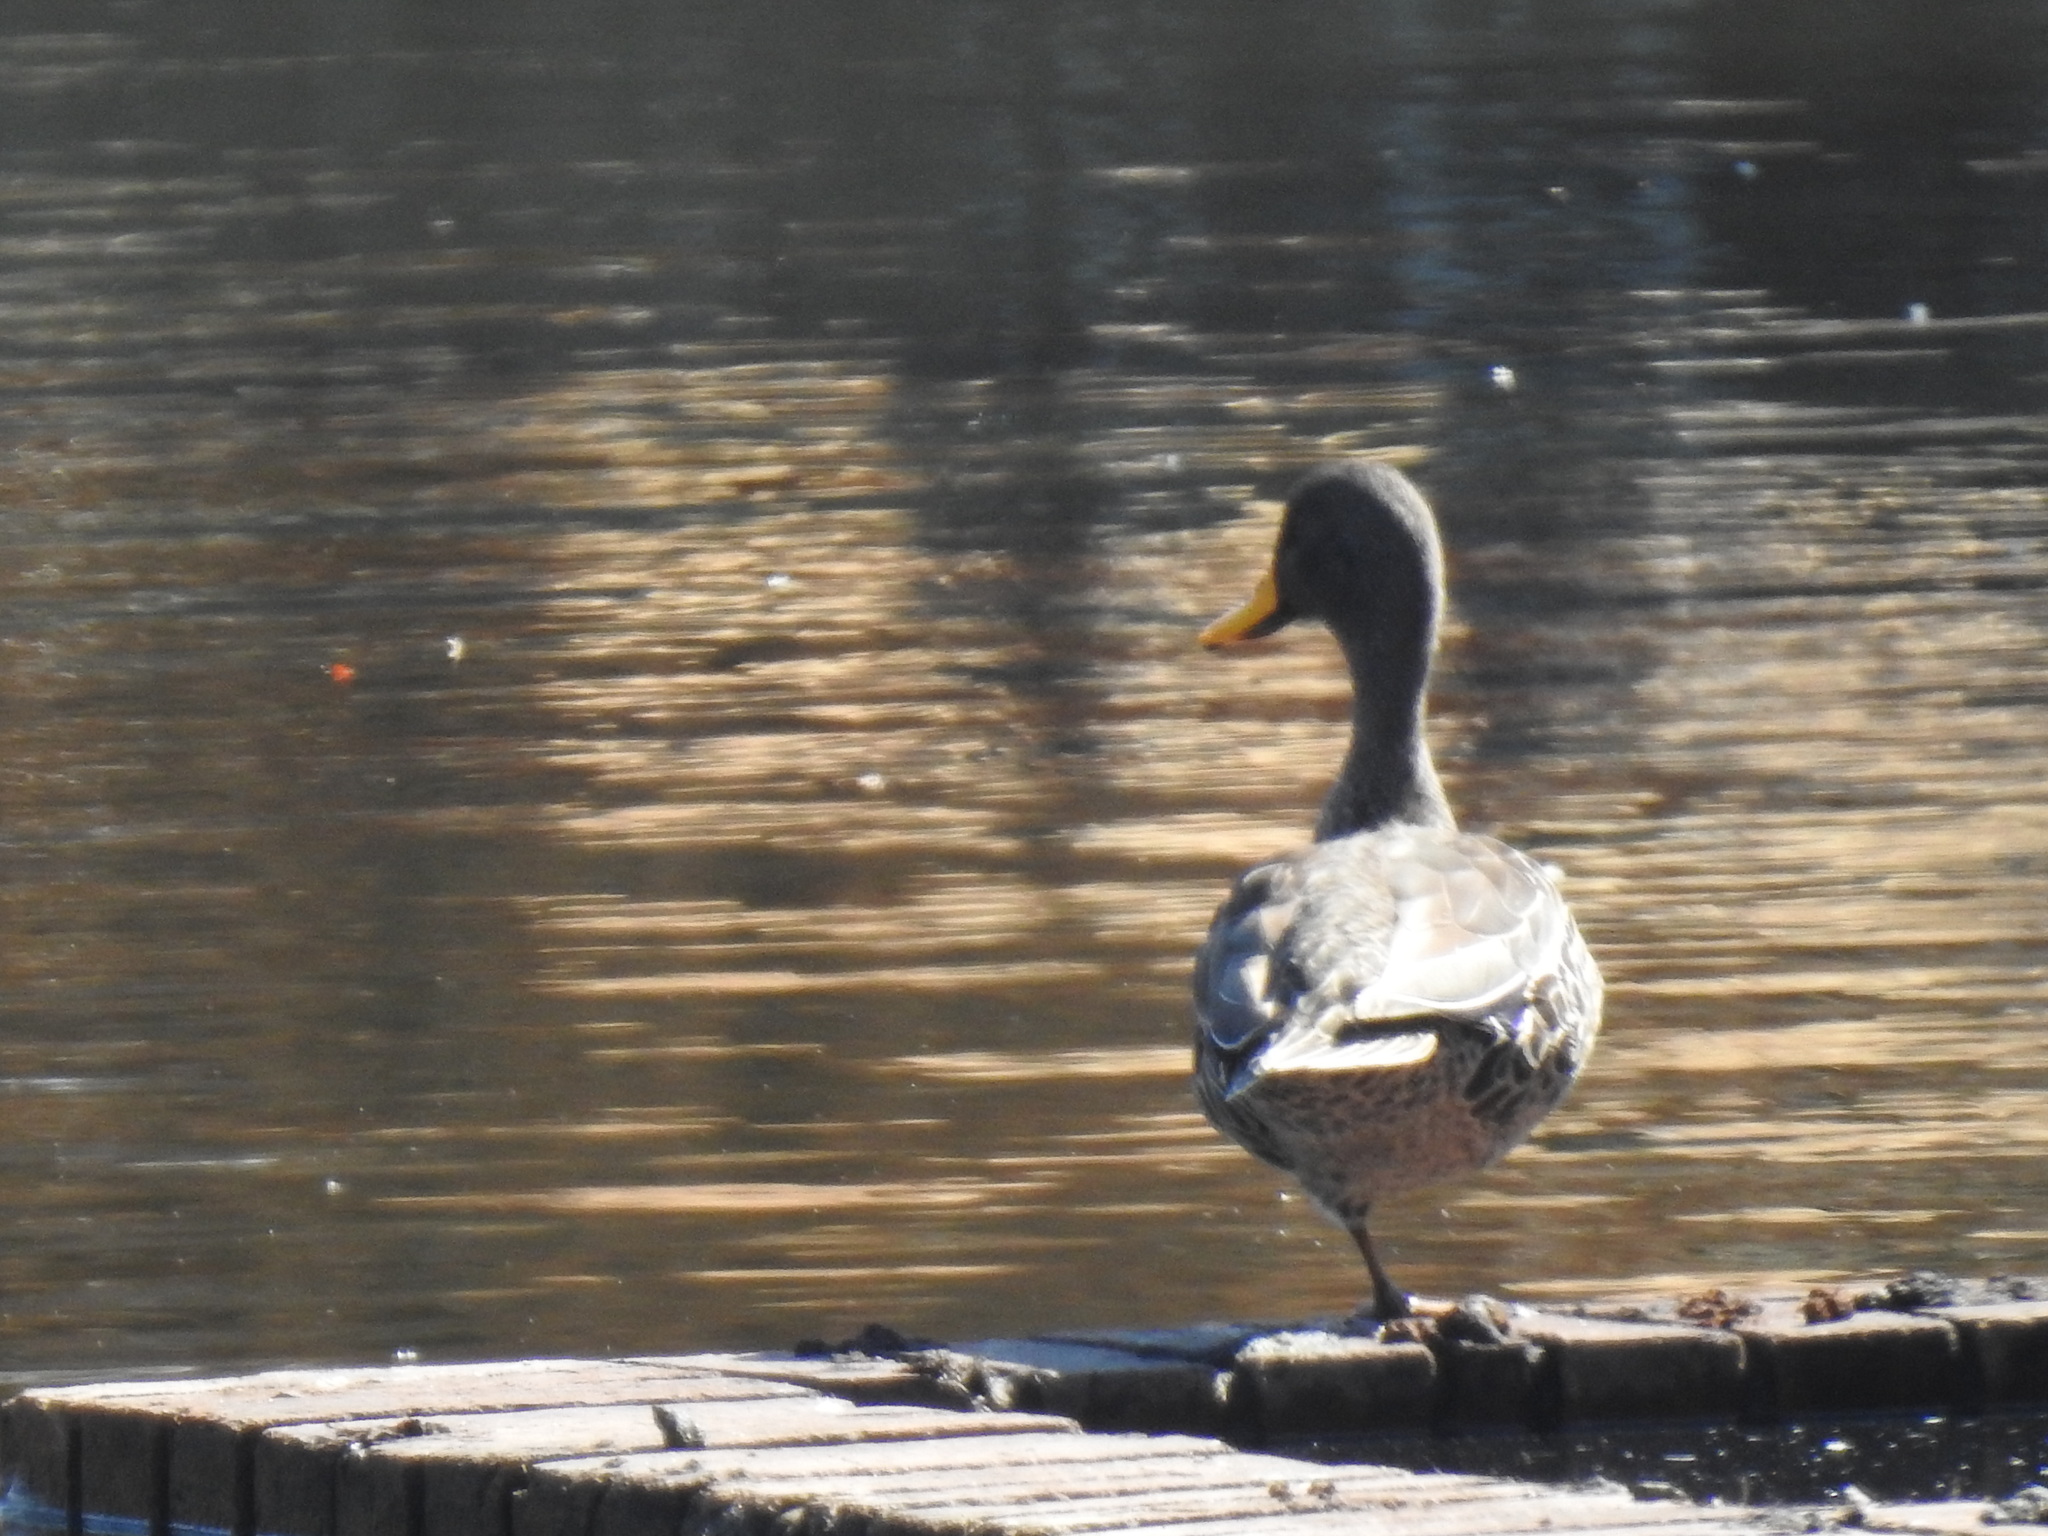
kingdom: Animalia
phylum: Chordata
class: Aves
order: Anseriformes
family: Anatidae
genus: Anas
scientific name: Anas undulata
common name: Yellow-billed duck
